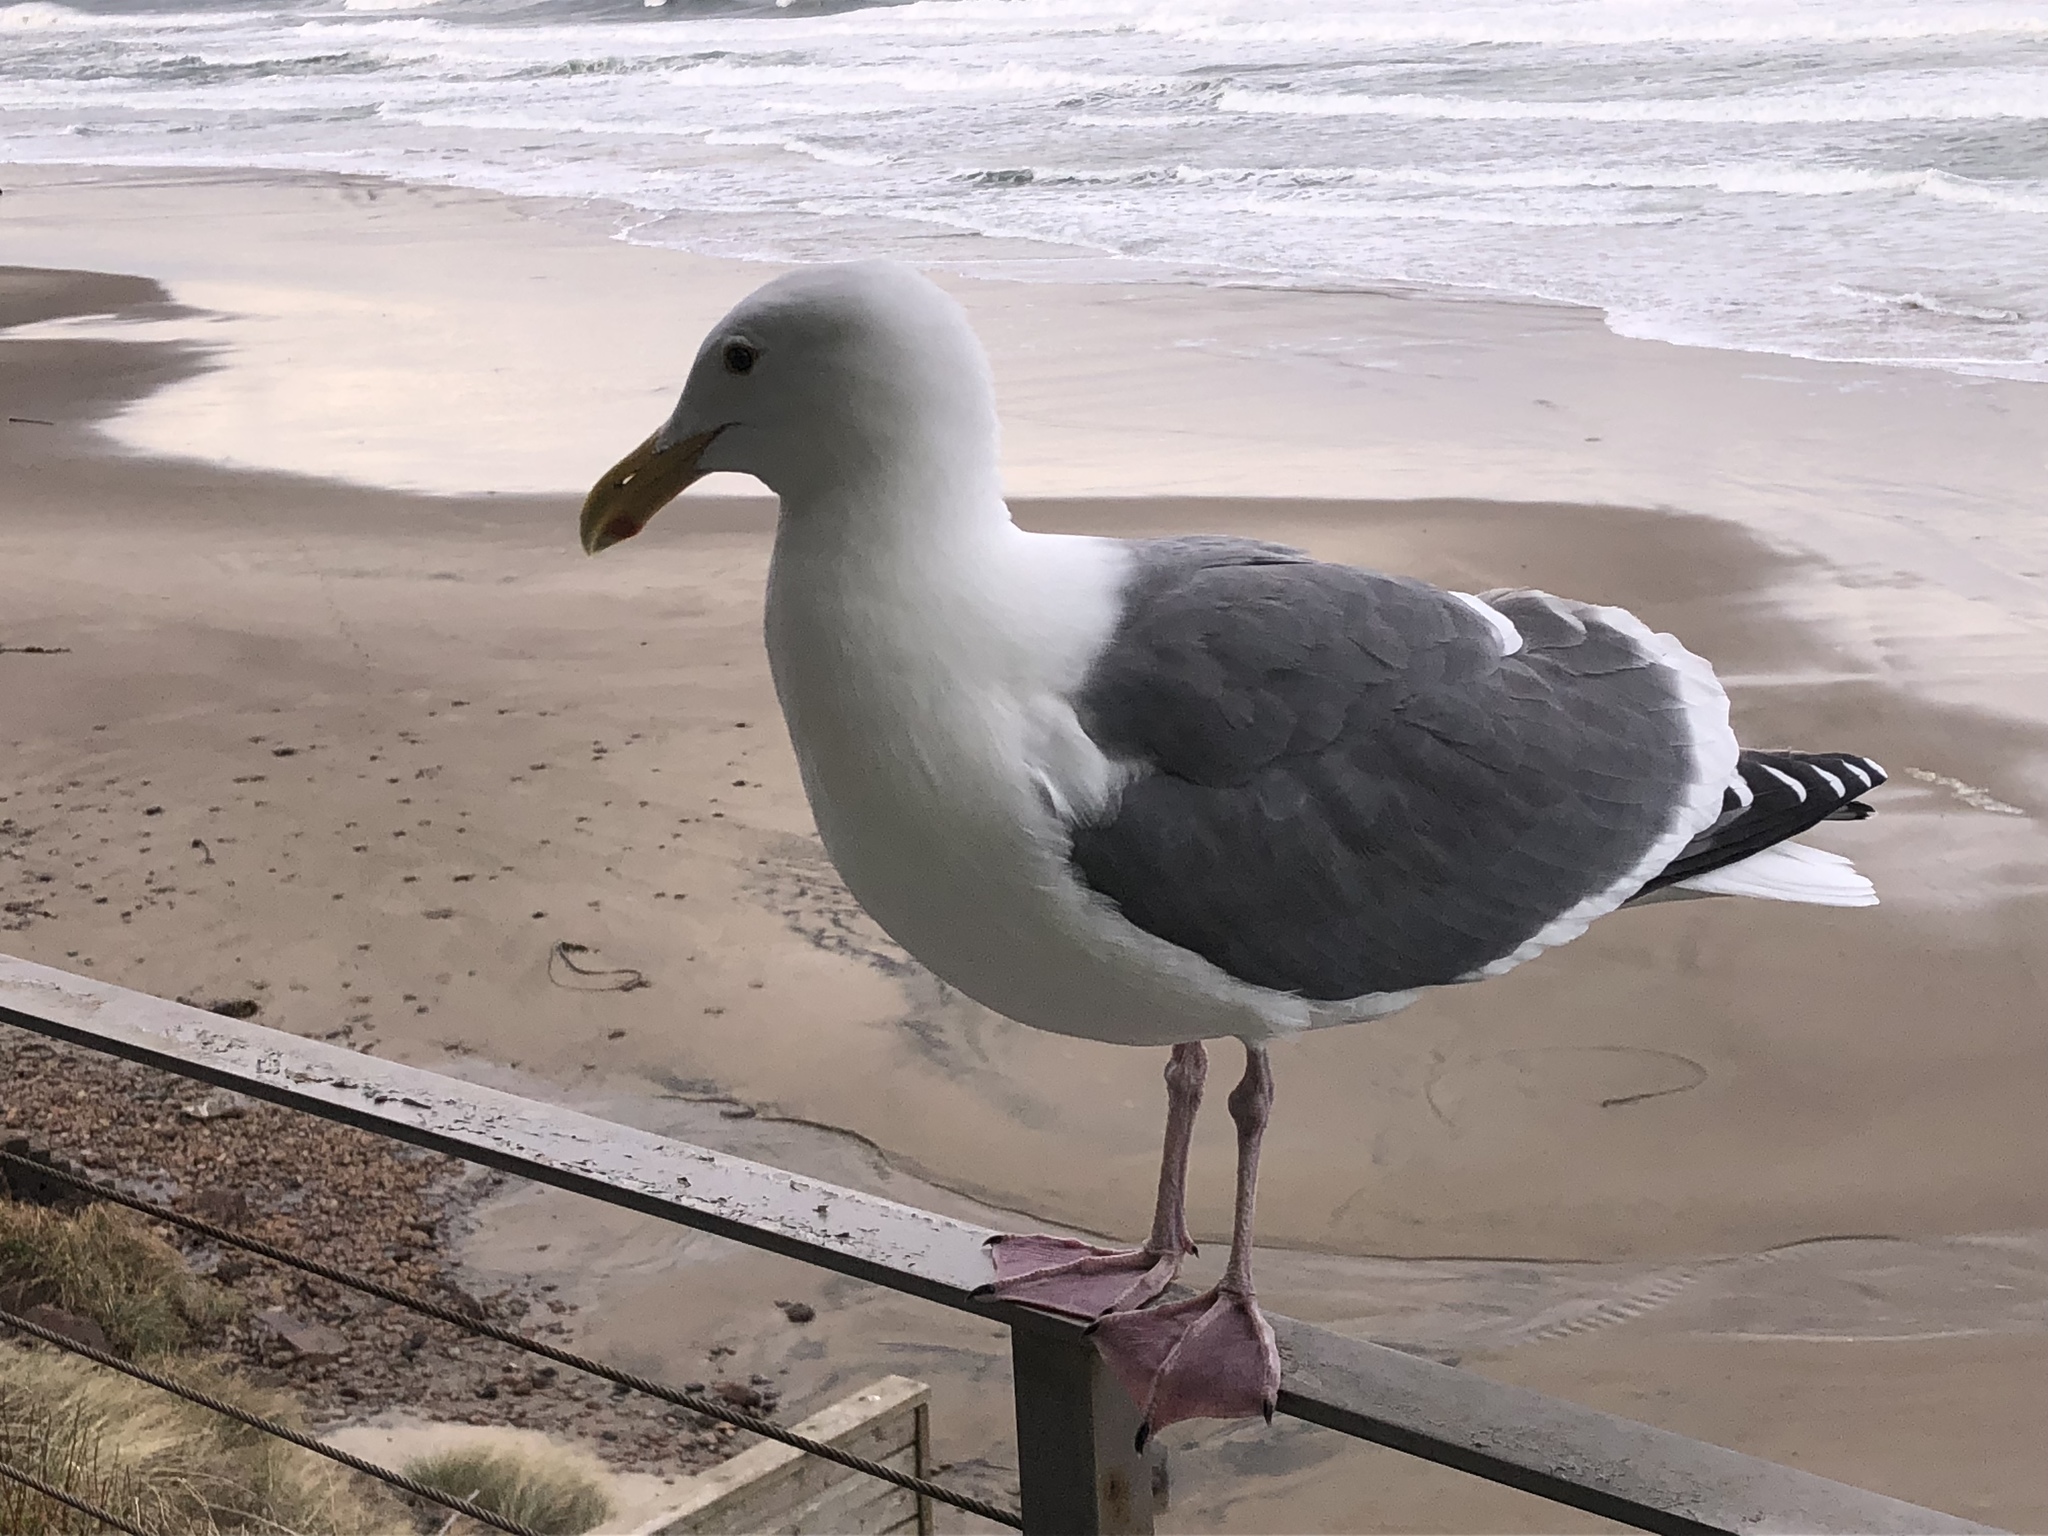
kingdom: Animalia
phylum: Chordata
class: Aves
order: Charadriiformes
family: Laridae
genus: Larus
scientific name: Larus occidentalis
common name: Western gull
